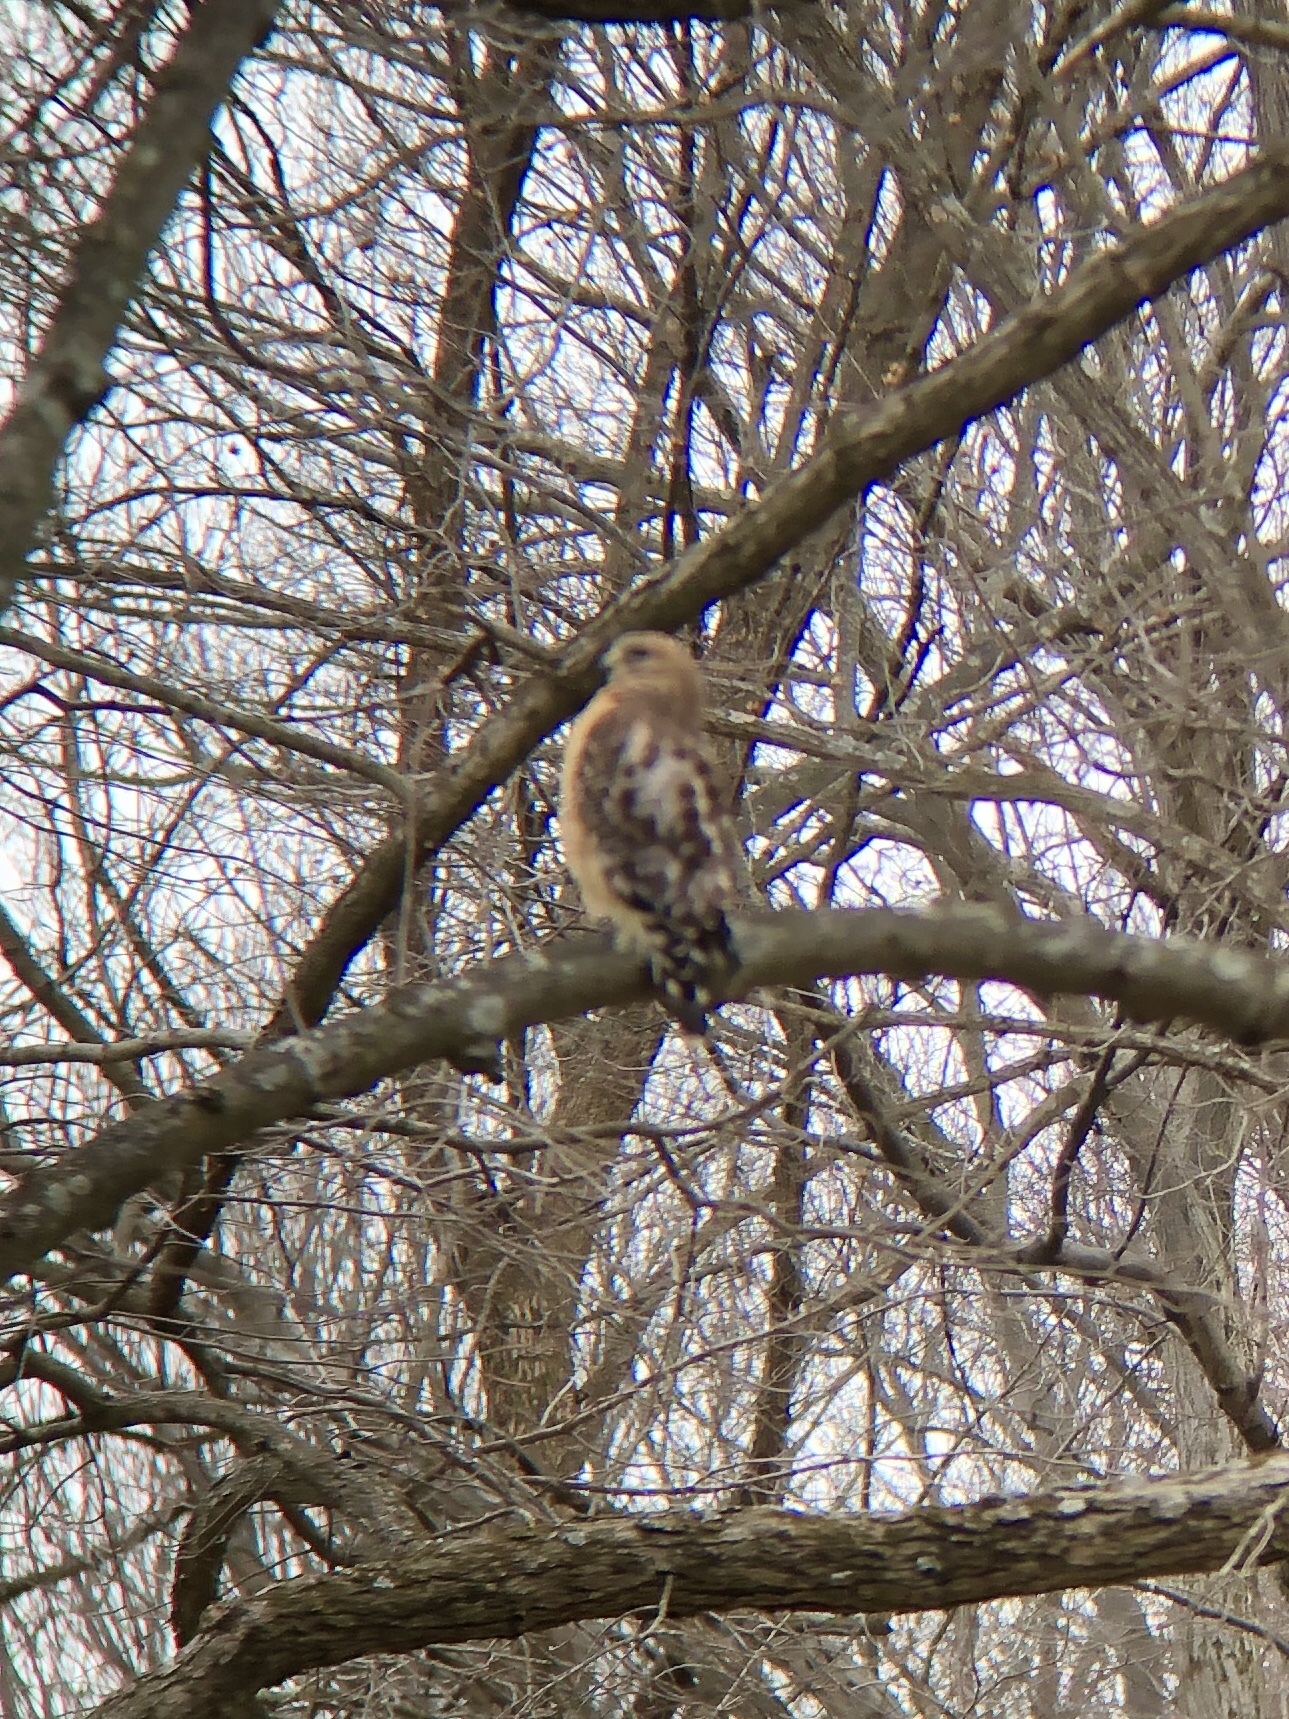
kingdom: Animalia
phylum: Chordata
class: Aves
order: Accipitriformes
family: Accipitridae
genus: Buteo
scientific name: Buteo lineatus
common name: Red-shouldered hawk
